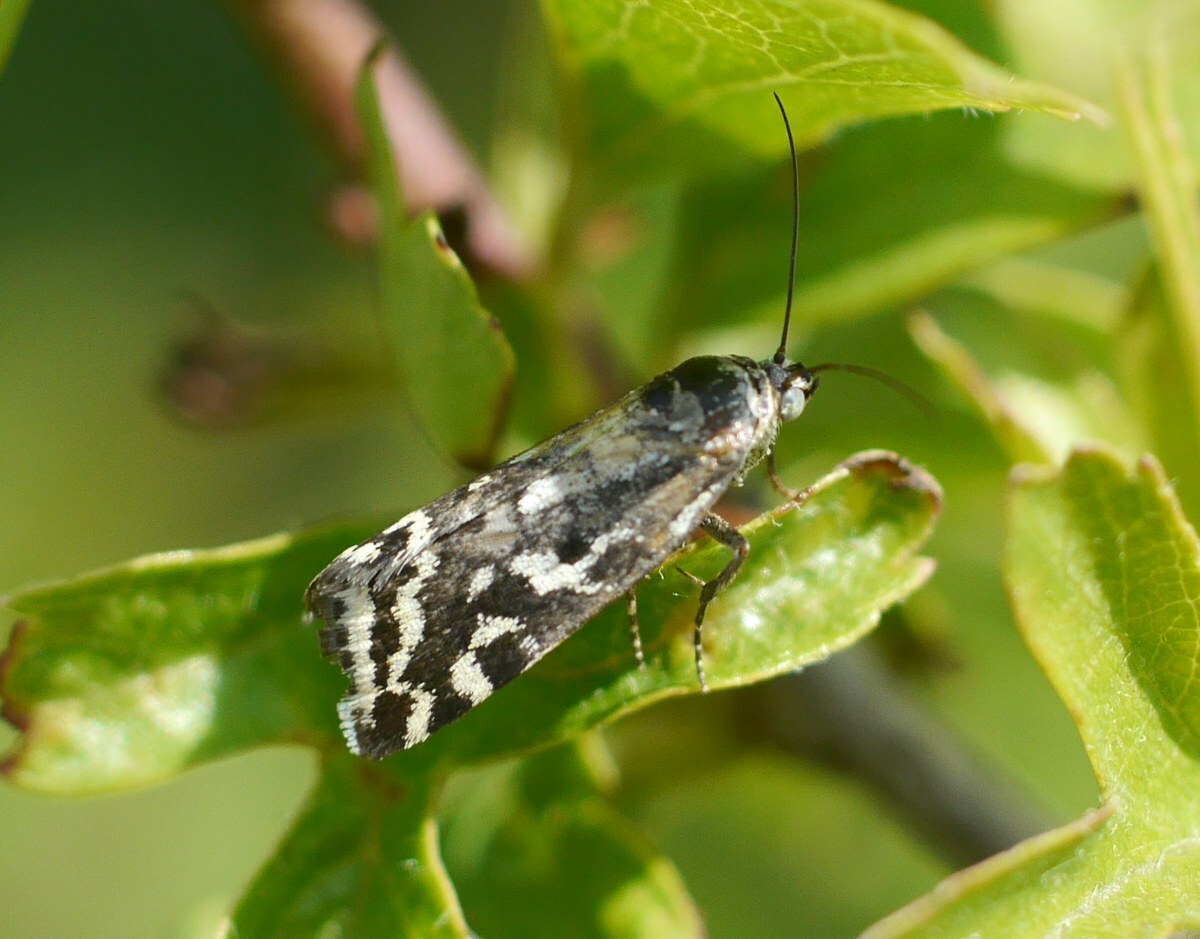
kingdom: Animalia
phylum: Arthropoda
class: Insecta
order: Lepidoptera
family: Noctuidae
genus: Acontia
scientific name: Acontia trabealis
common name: Spotted sulphur
